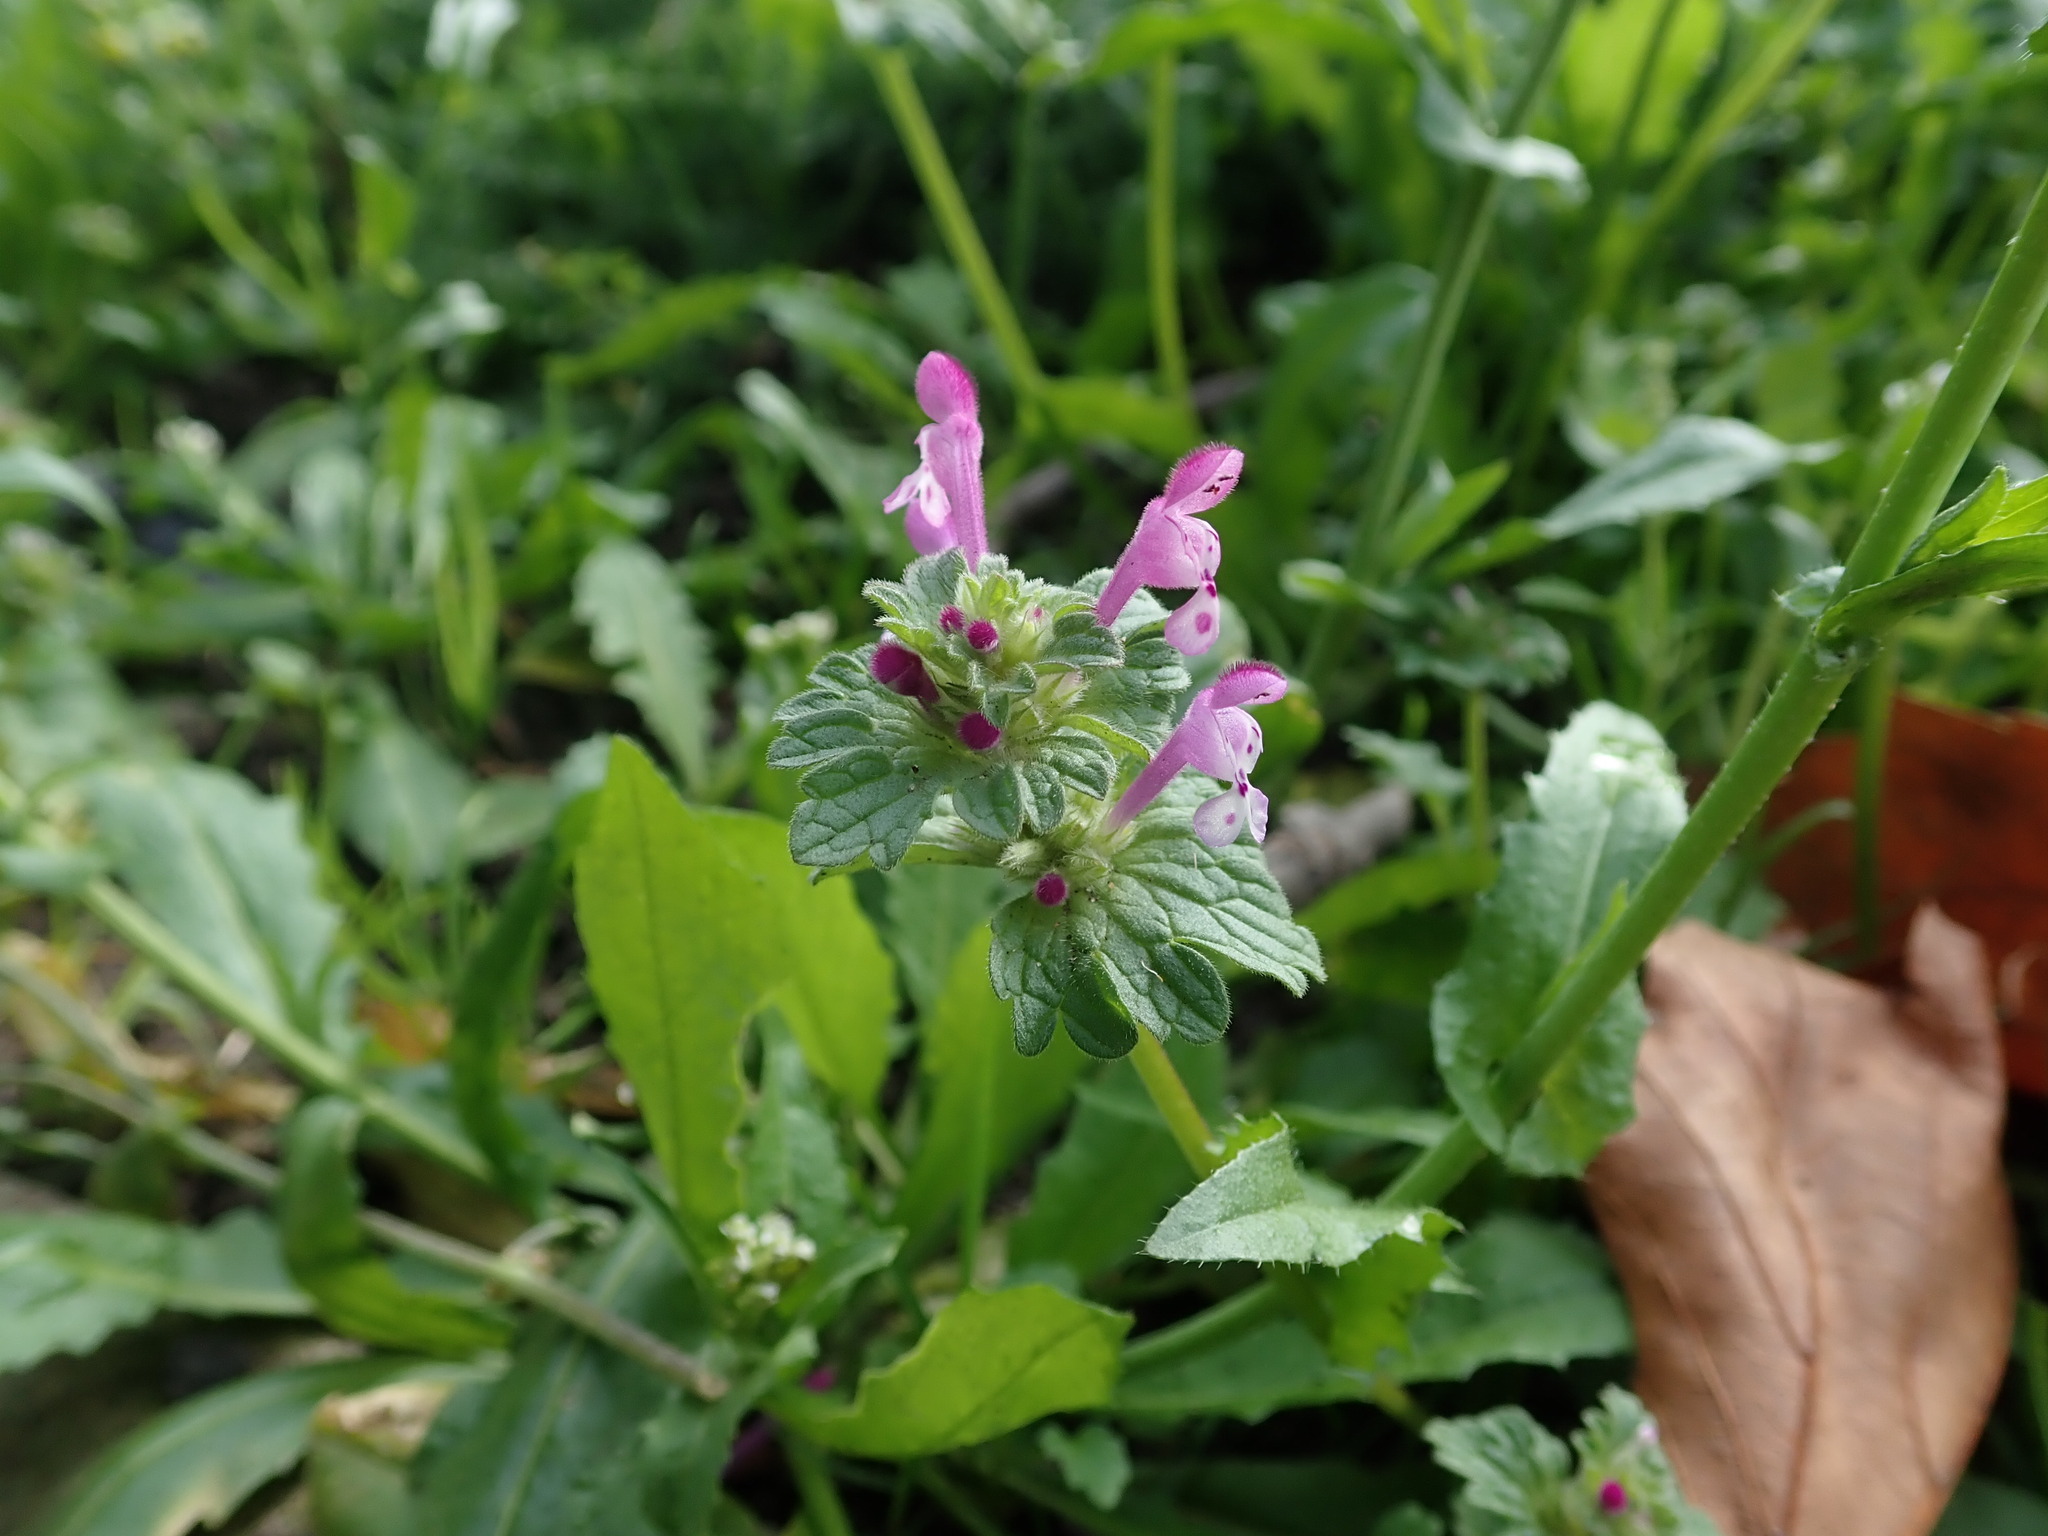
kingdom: Plantae
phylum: Tracheophyta
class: Magnoliopsida
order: Lamiales
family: Lamiaceae
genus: Lamium
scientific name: Lamium amplexicaule
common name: Henbit dead-nettle
